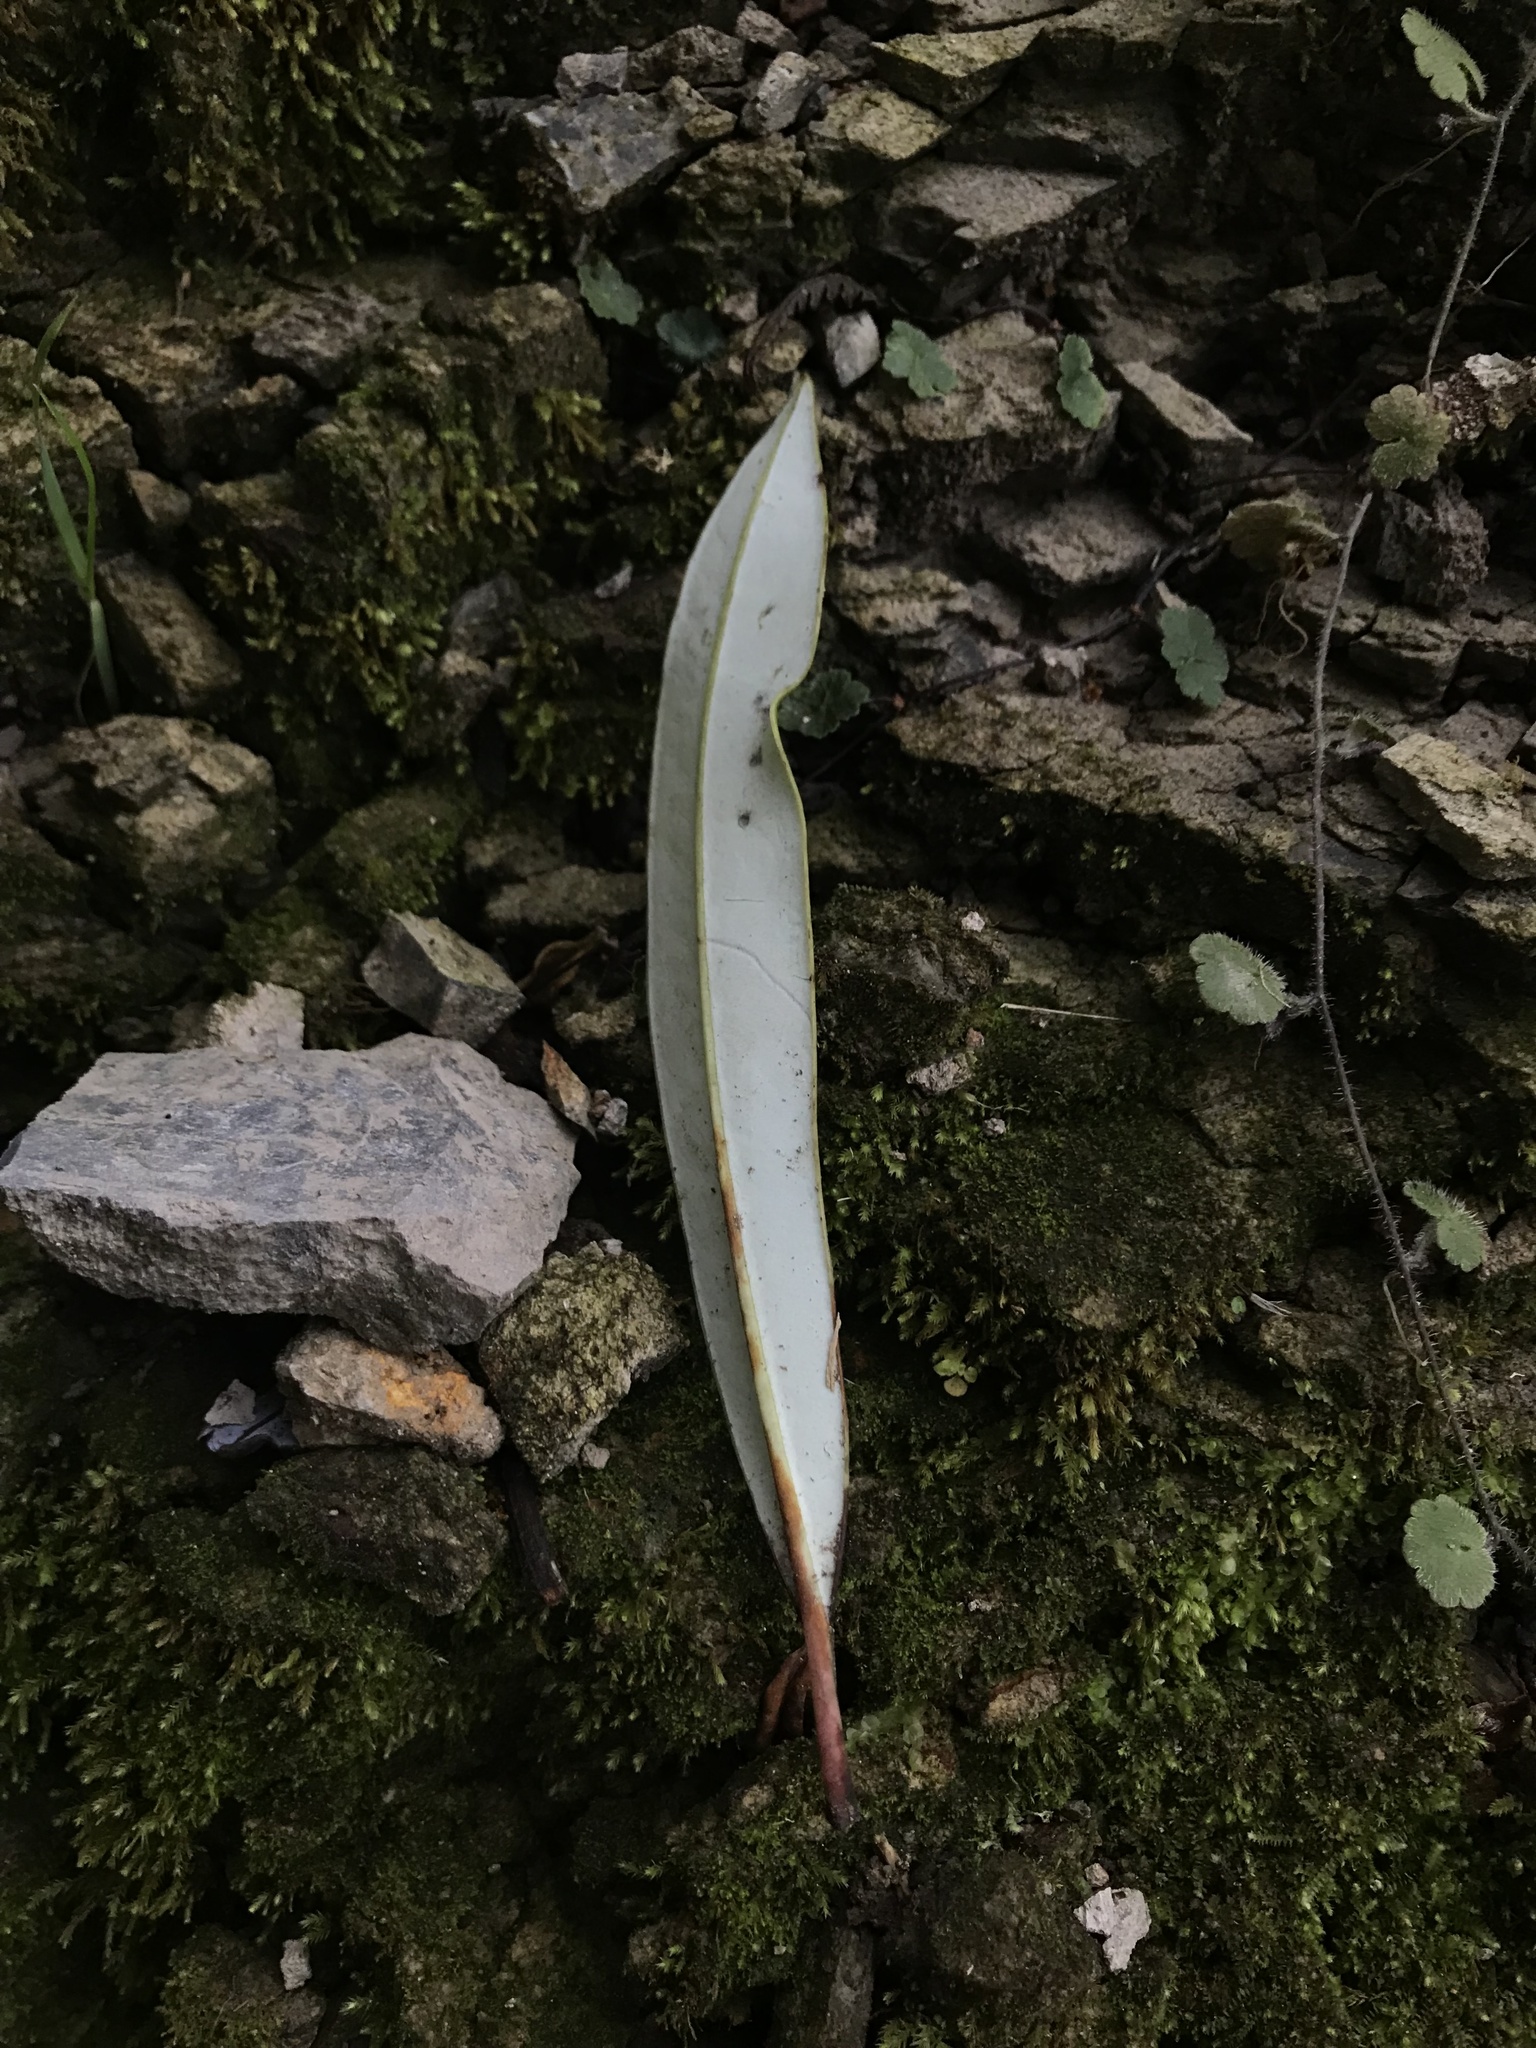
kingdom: Plantae
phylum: Tracheophyta
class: Magnoliopsida
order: Canellales
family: Winteraceae
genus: Drimys
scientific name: Drimys granadensis
